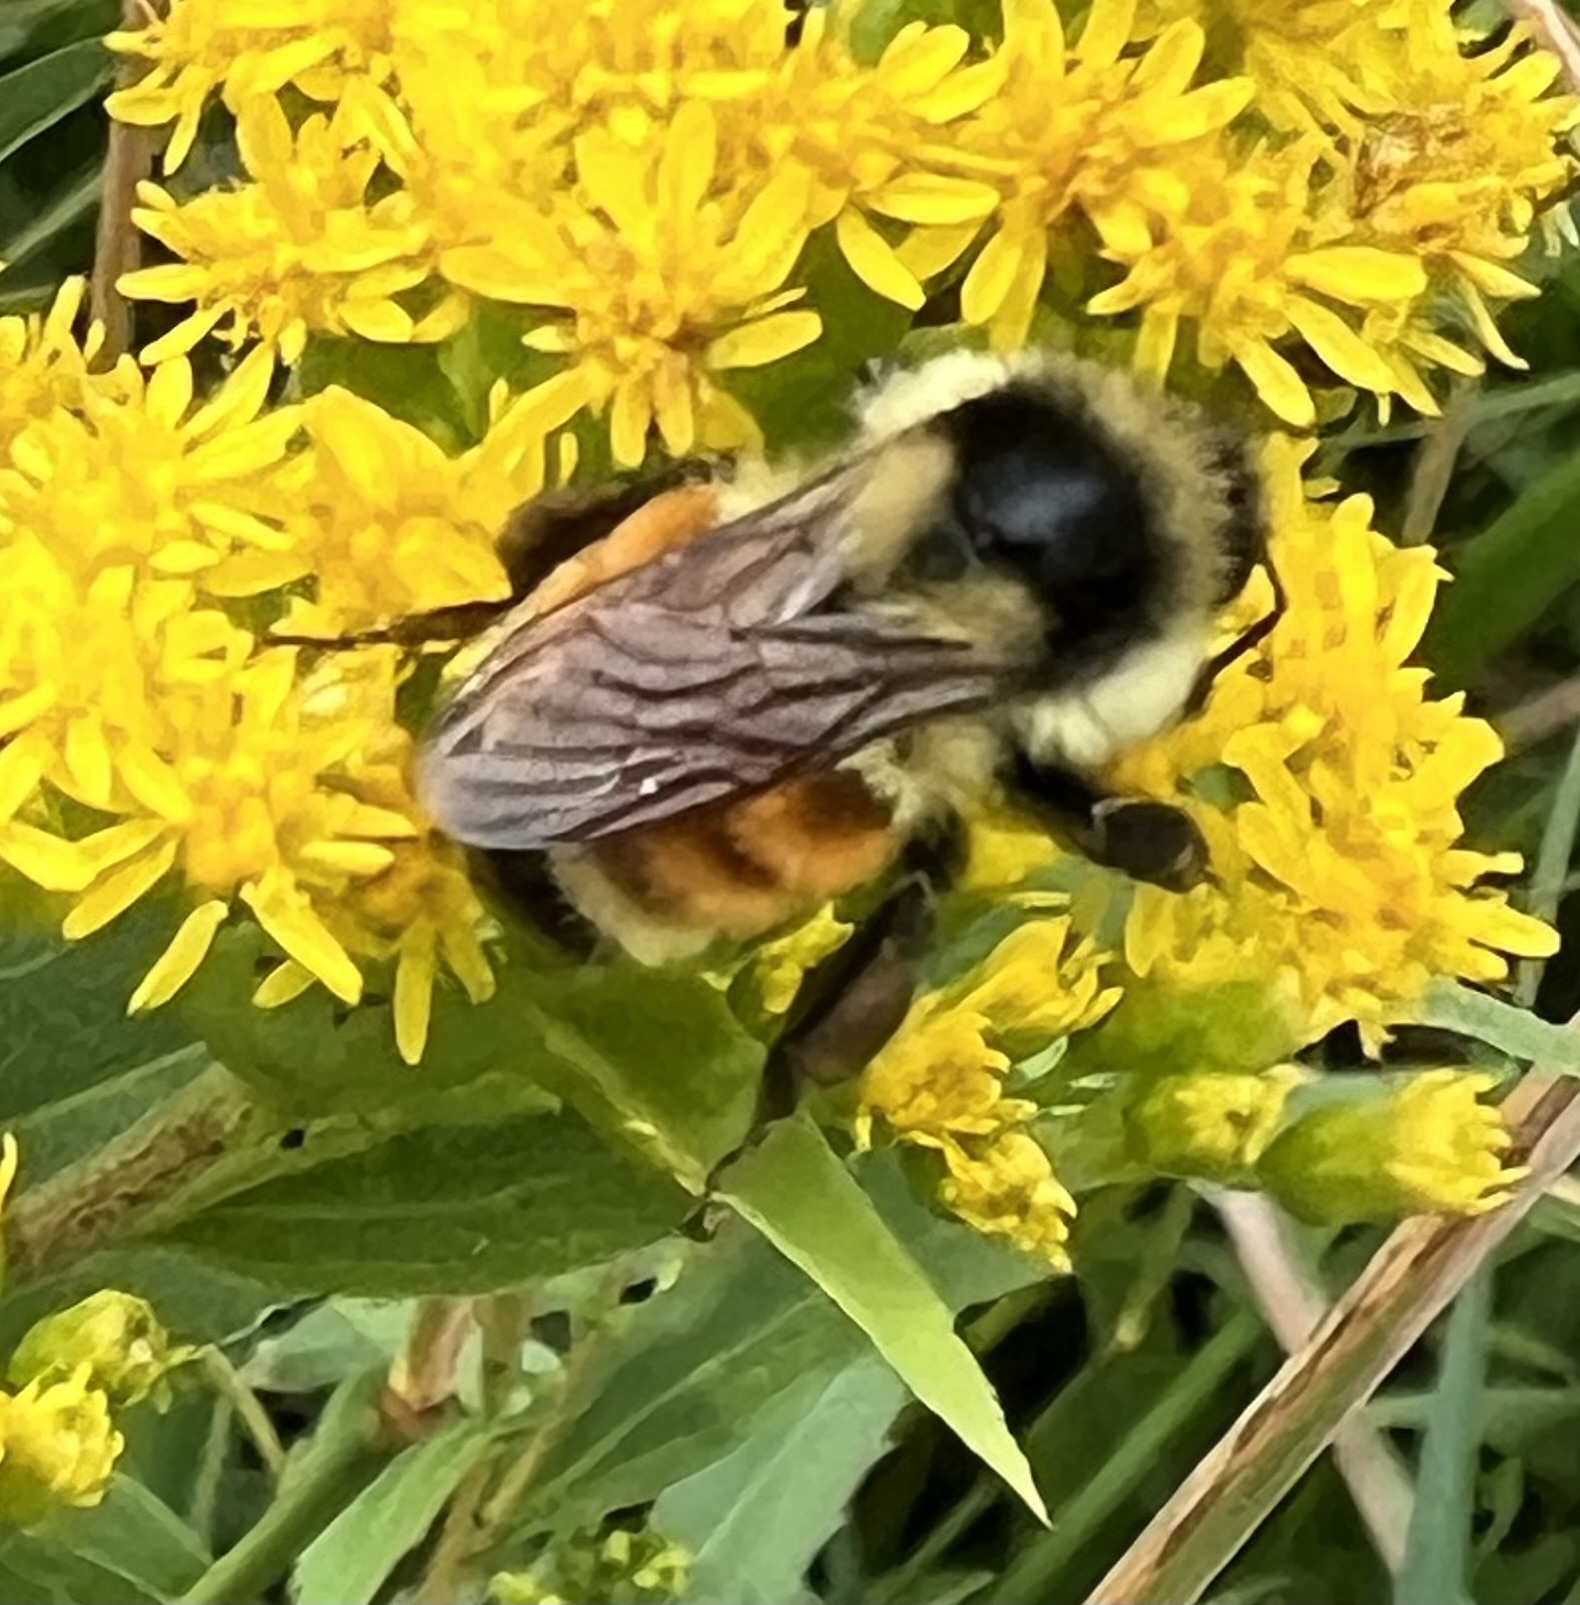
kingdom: Animalia
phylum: Arthropoda
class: Insecta
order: Hymenoptera
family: Apidae
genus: Bombus
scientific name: Bombus ternarius
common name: Tri-colored bumble bee
